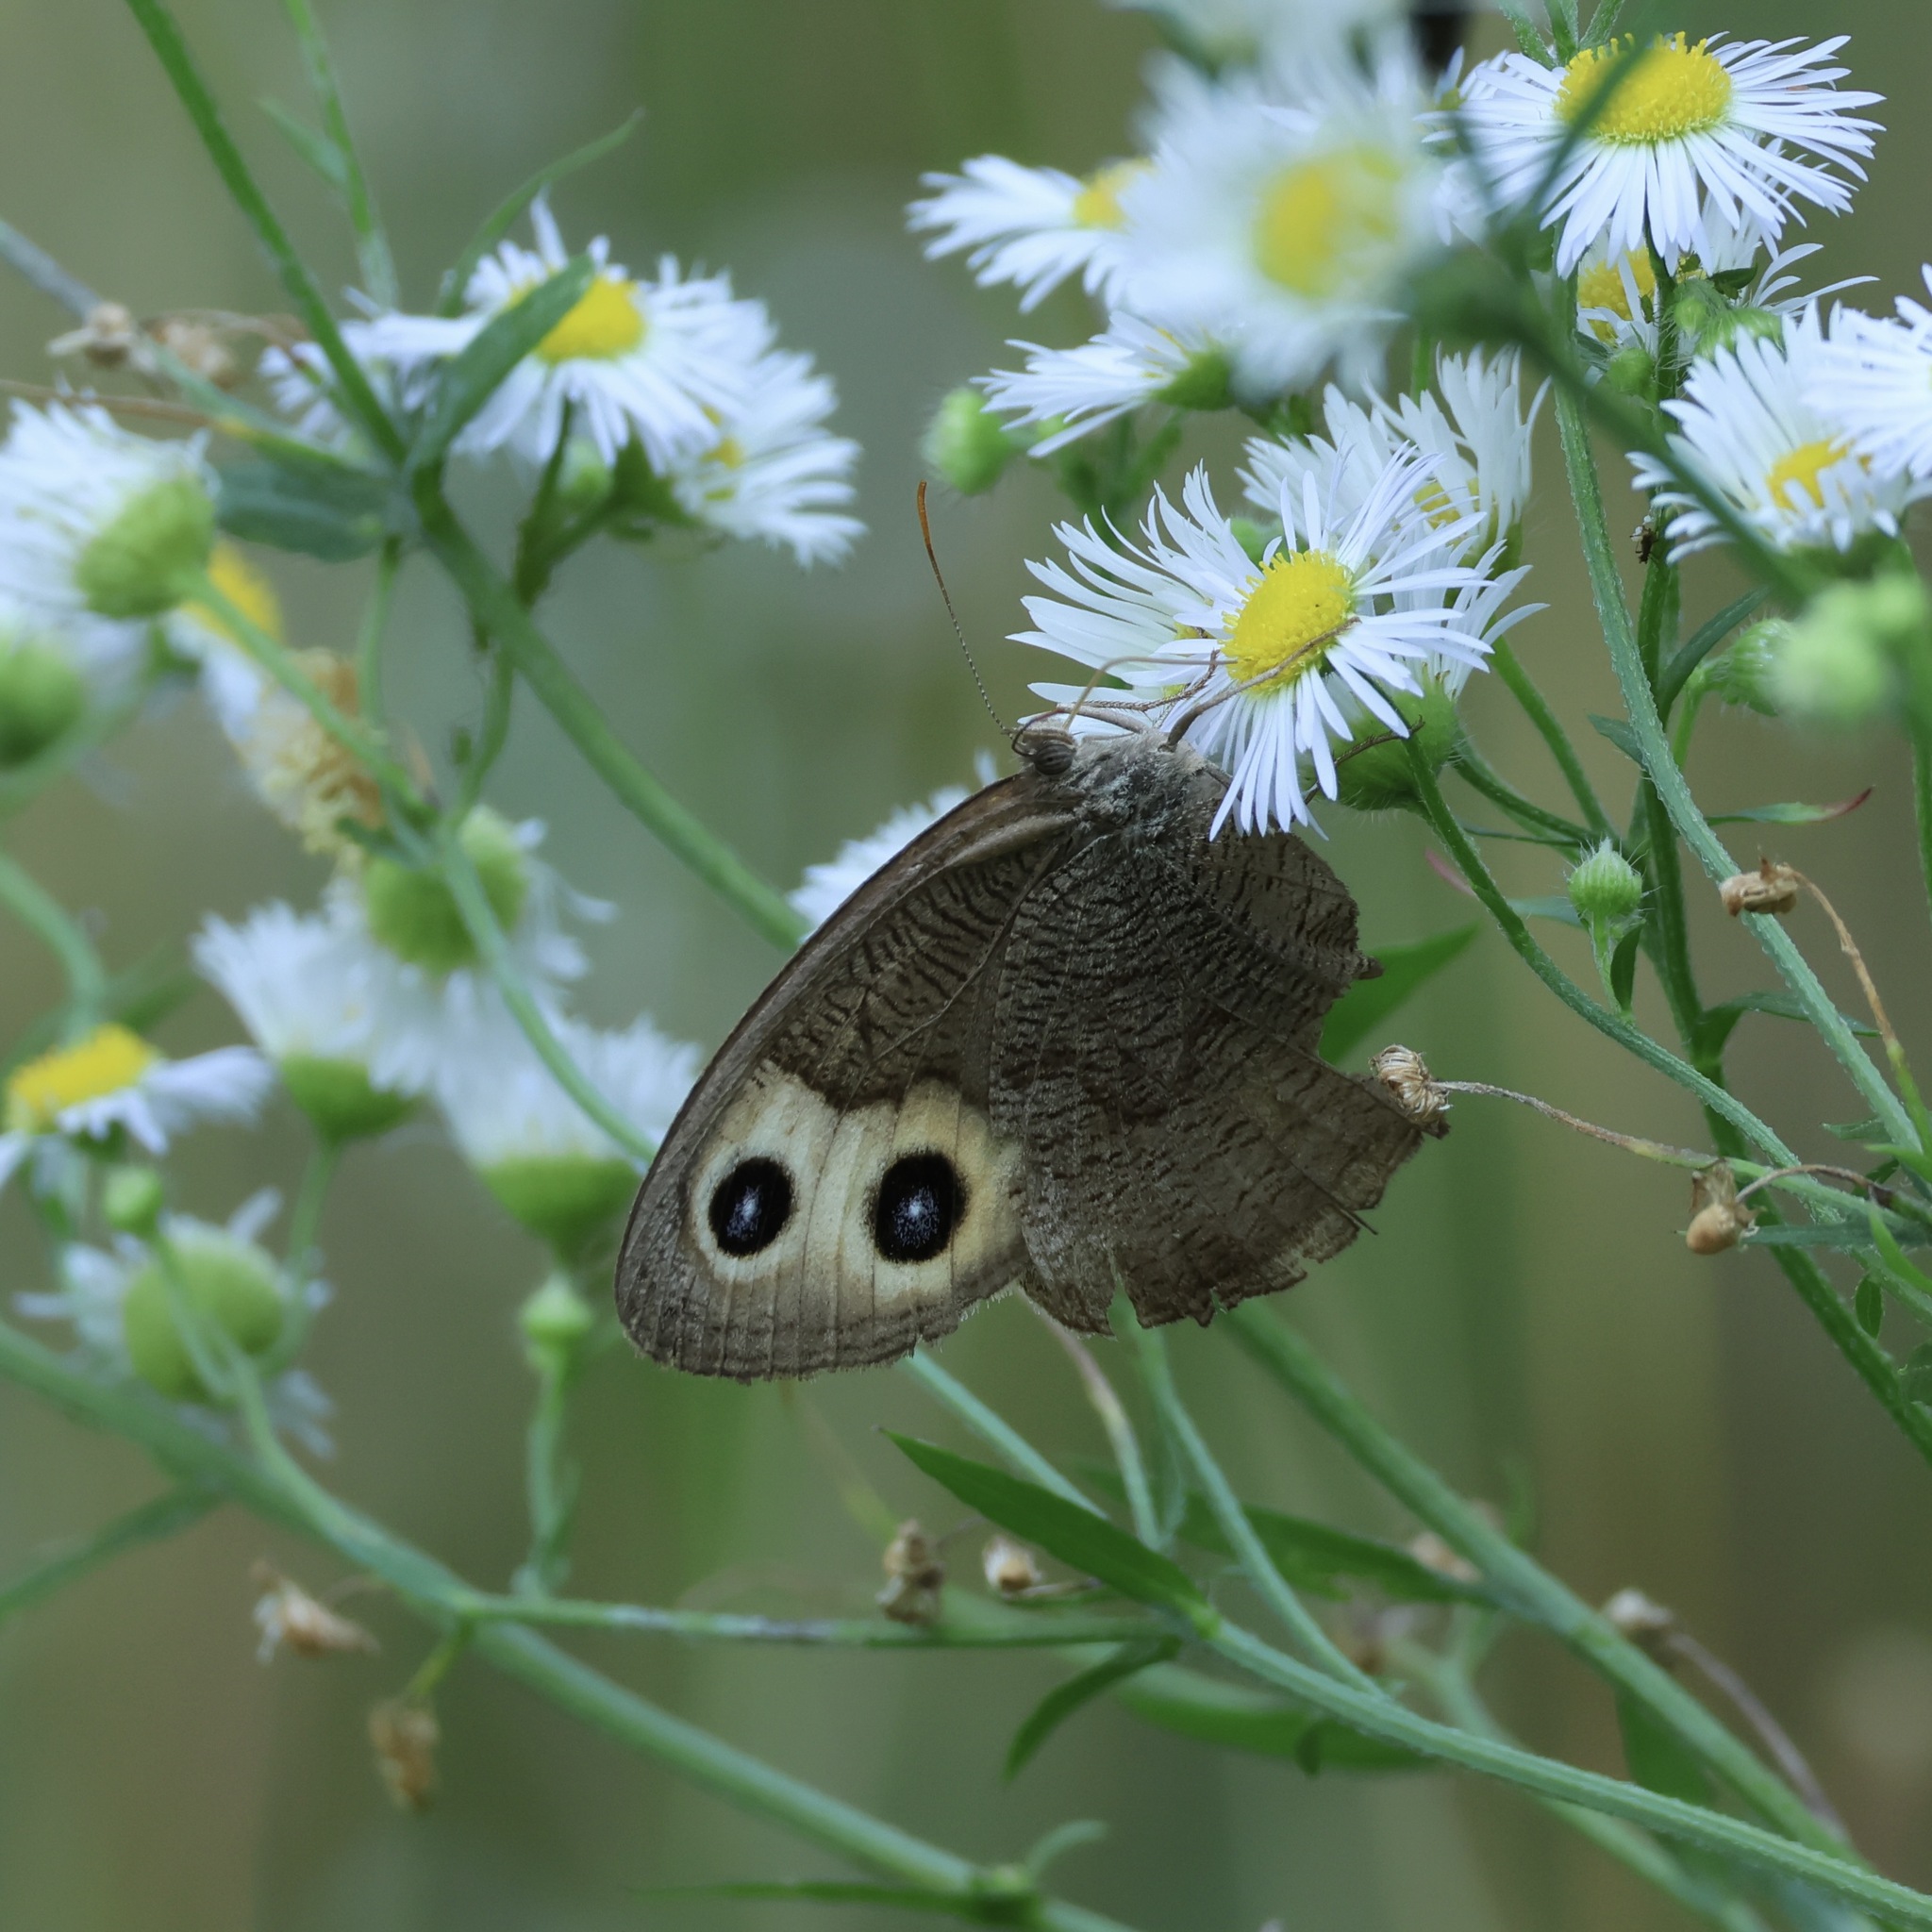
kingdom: Animalia
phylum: Arthropoda
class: Insecta
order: Lepidoptera
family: Nymphalidae
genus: Cercyonis
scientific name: Cercyonis pegala
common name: Common wood-nymph
